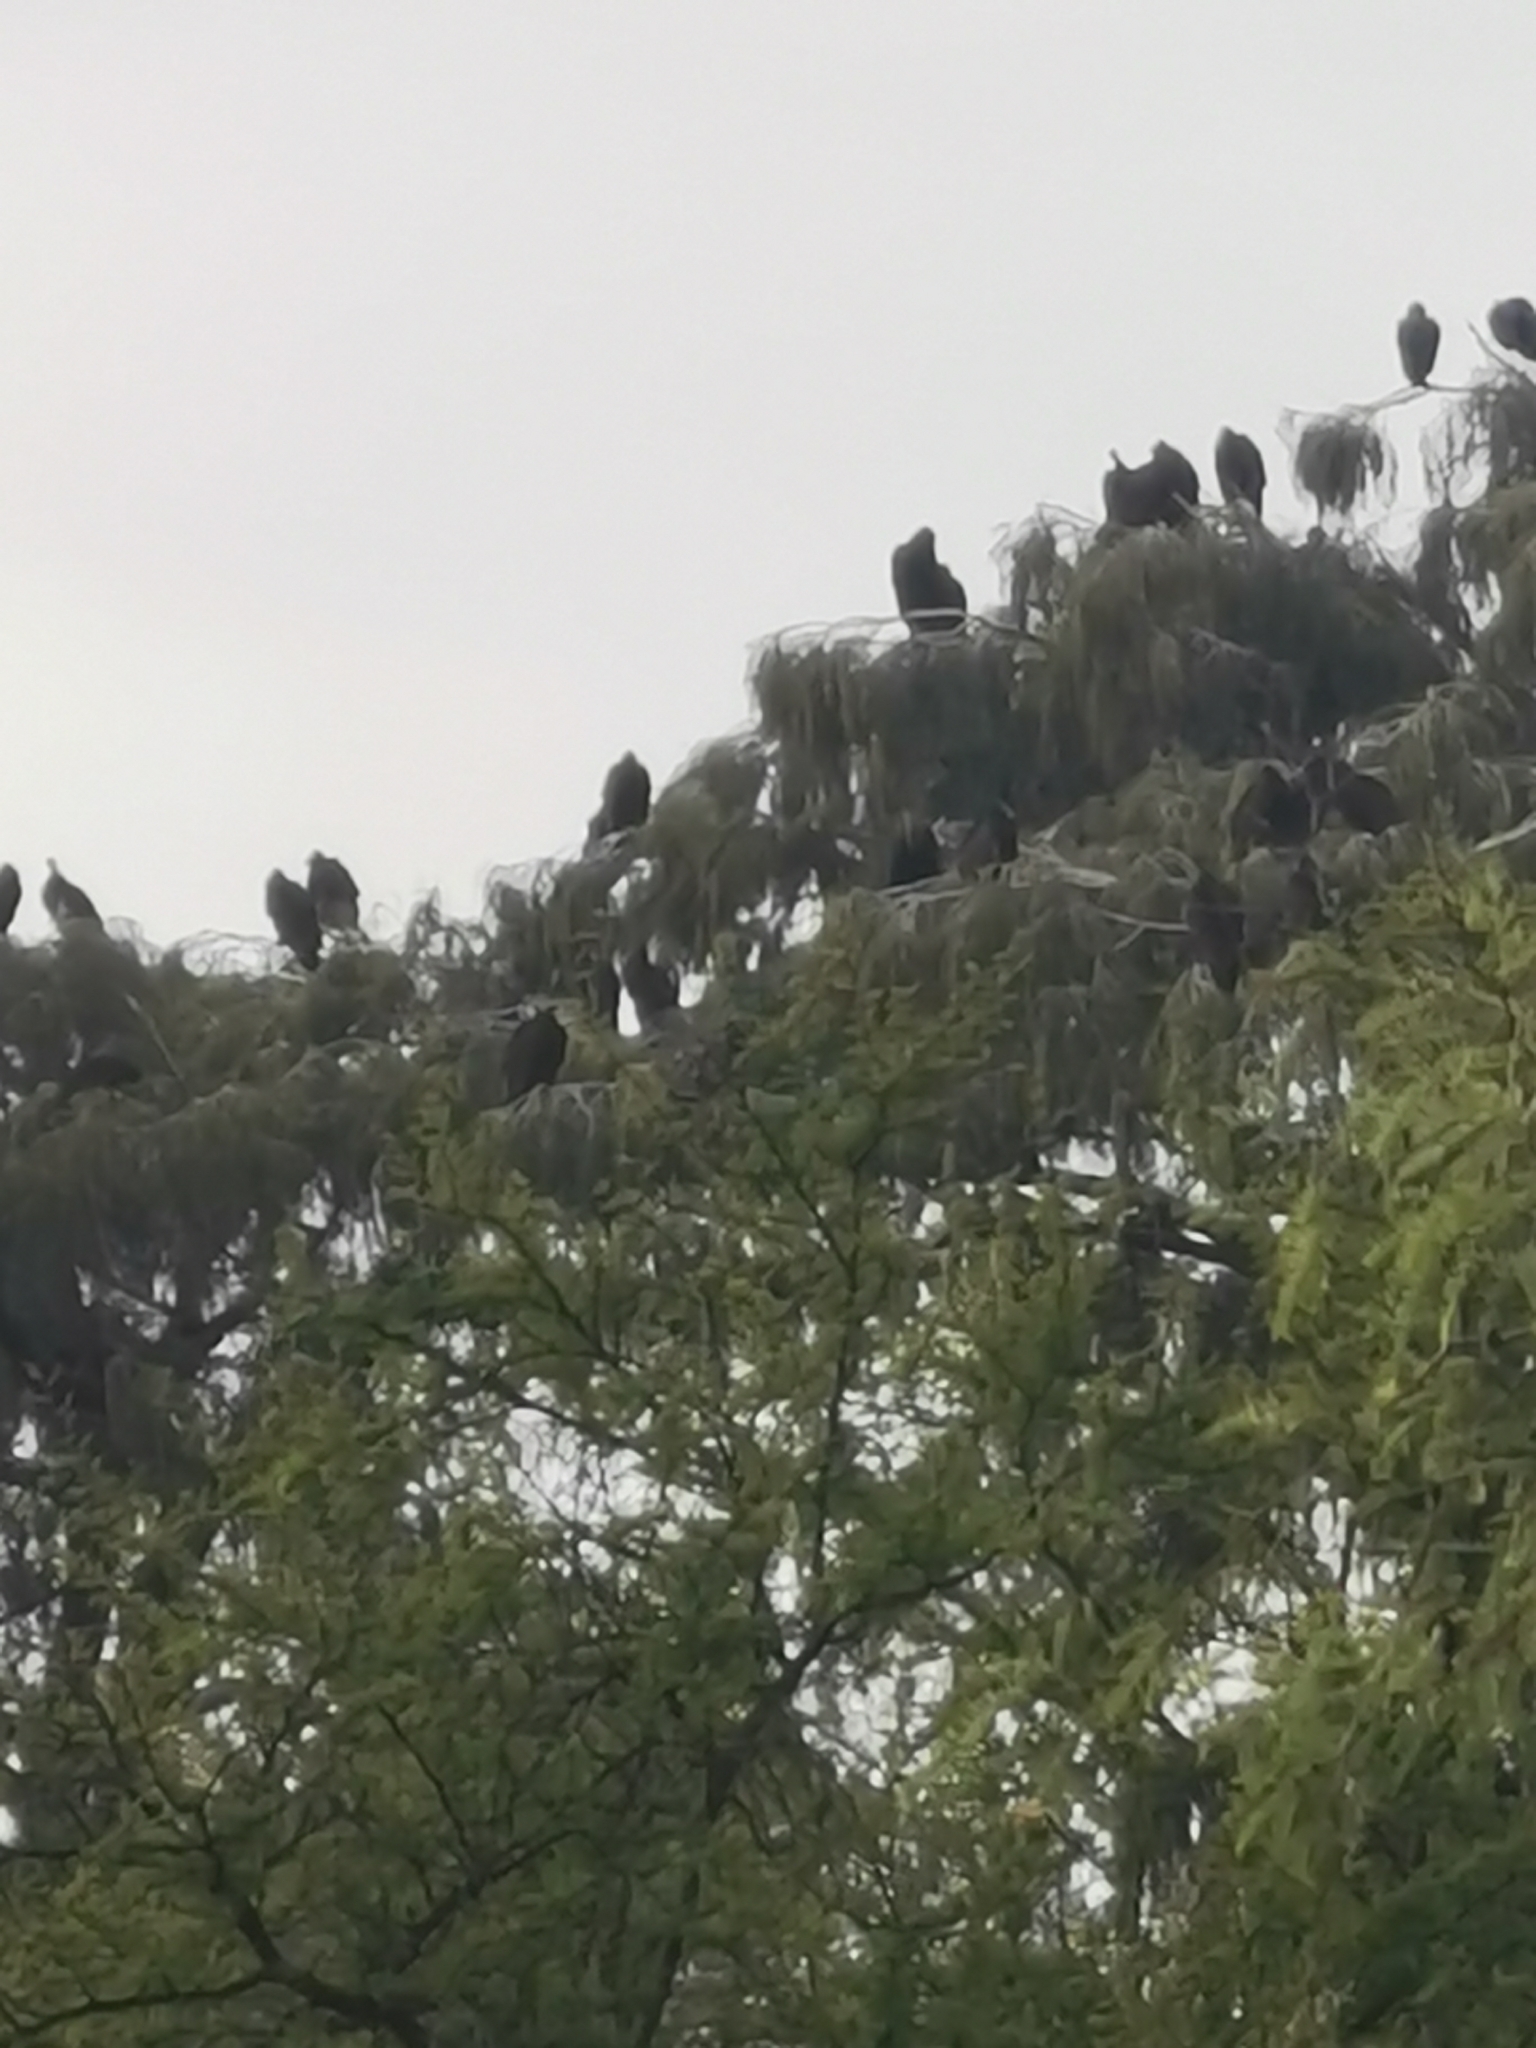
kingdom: Animalia
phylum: Chordata
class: Aves
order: Accipitriformes
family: Cathartidae
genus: Cathartes
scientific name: Cathartes aura
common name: Turkey vulture
